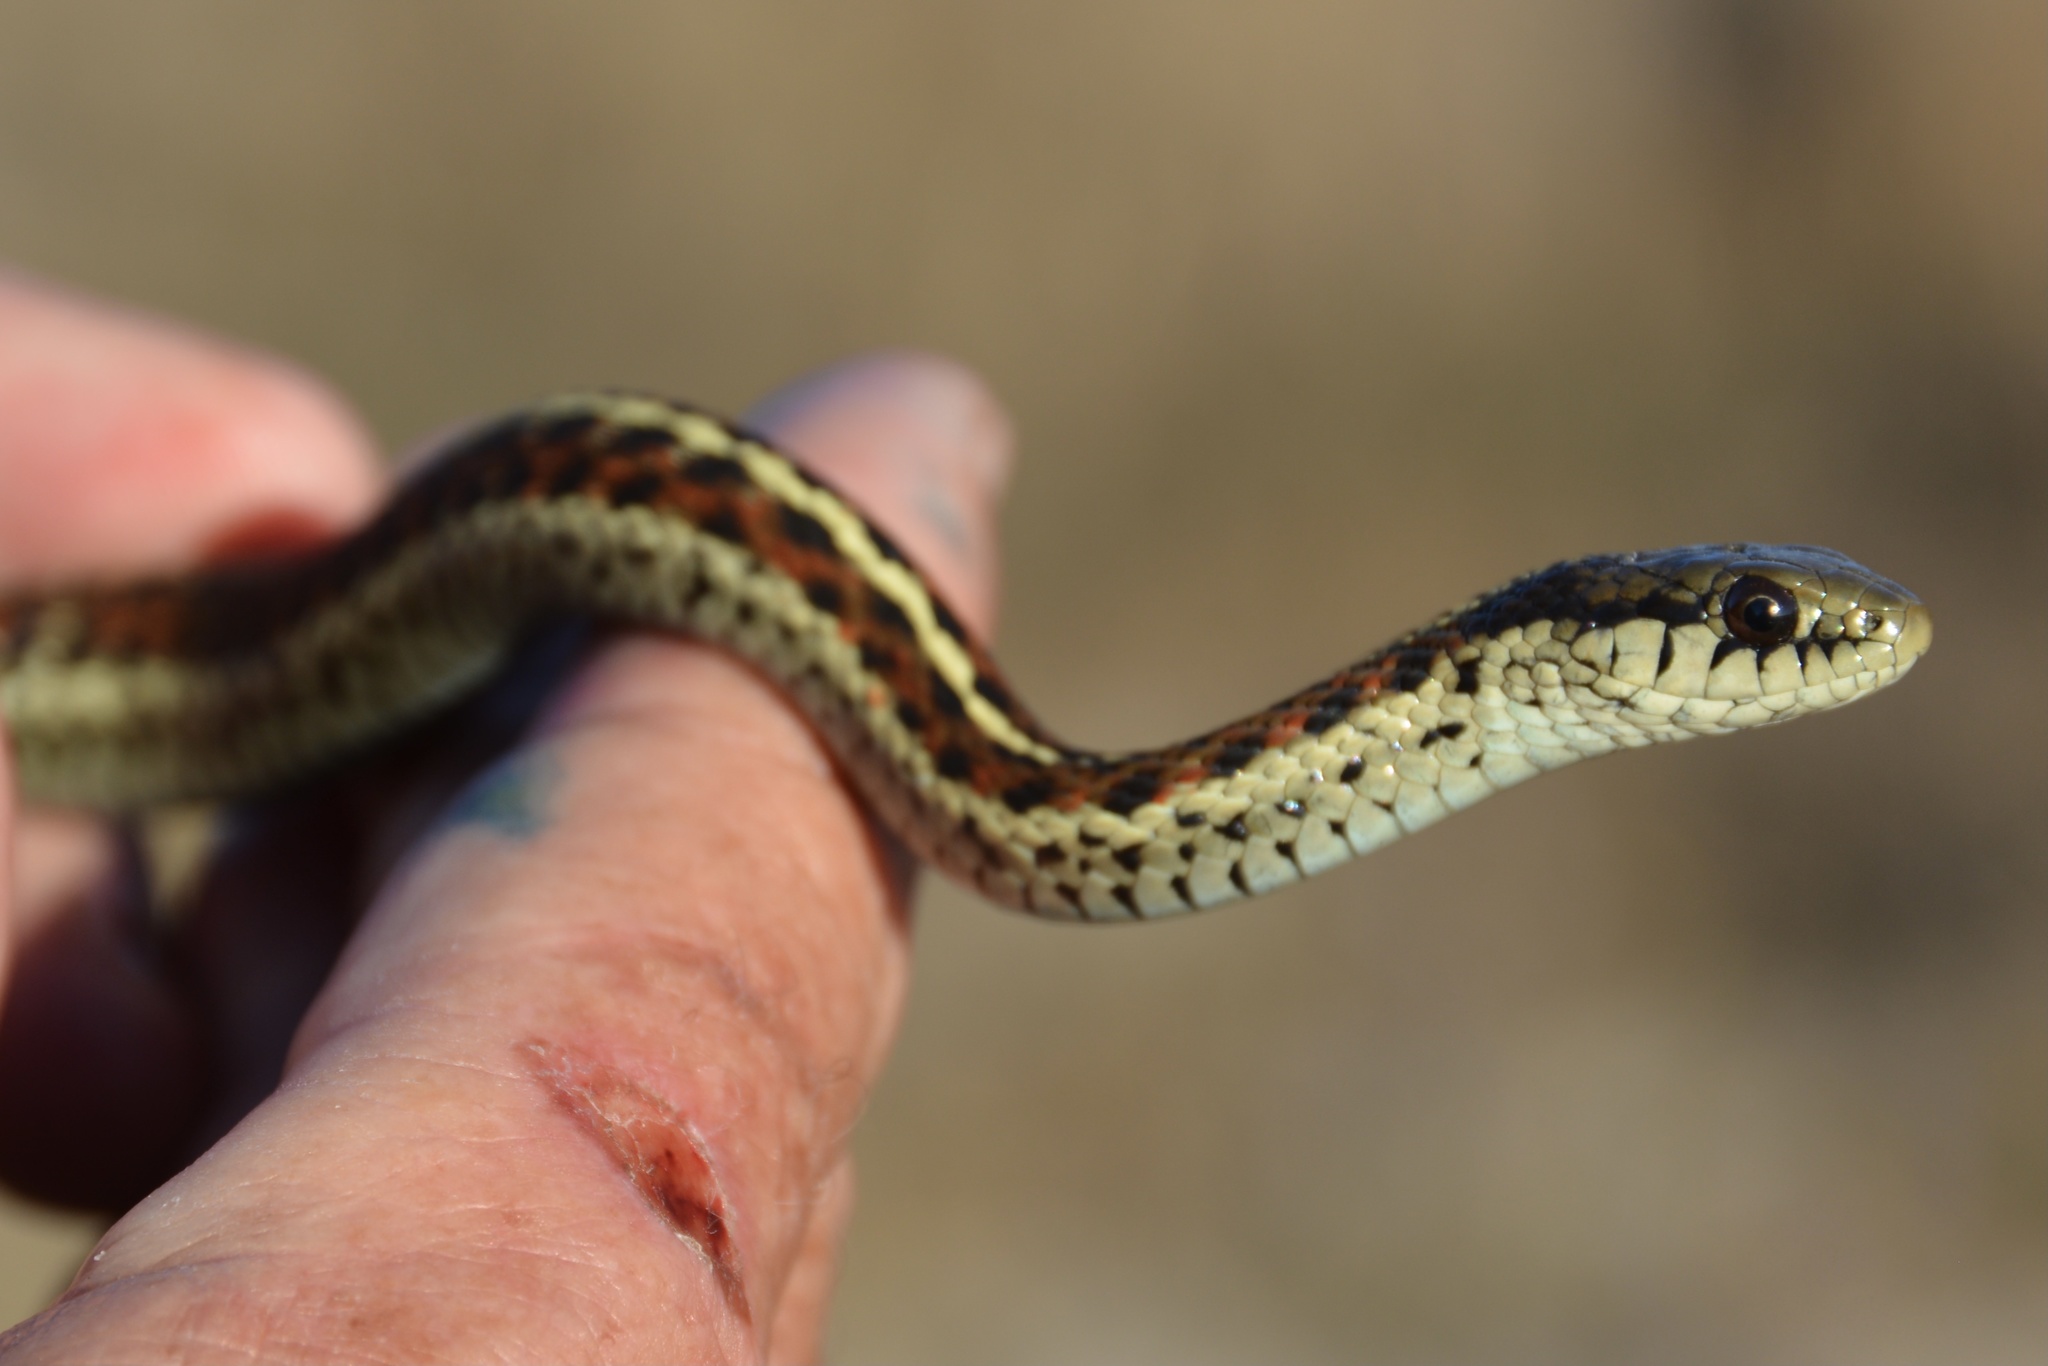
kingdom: Animalia
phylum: Chordata
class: Squamata
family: Colubridae
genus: Thamnophis
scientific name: Thamnophis elegans
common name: Western terrestrial garter snake
